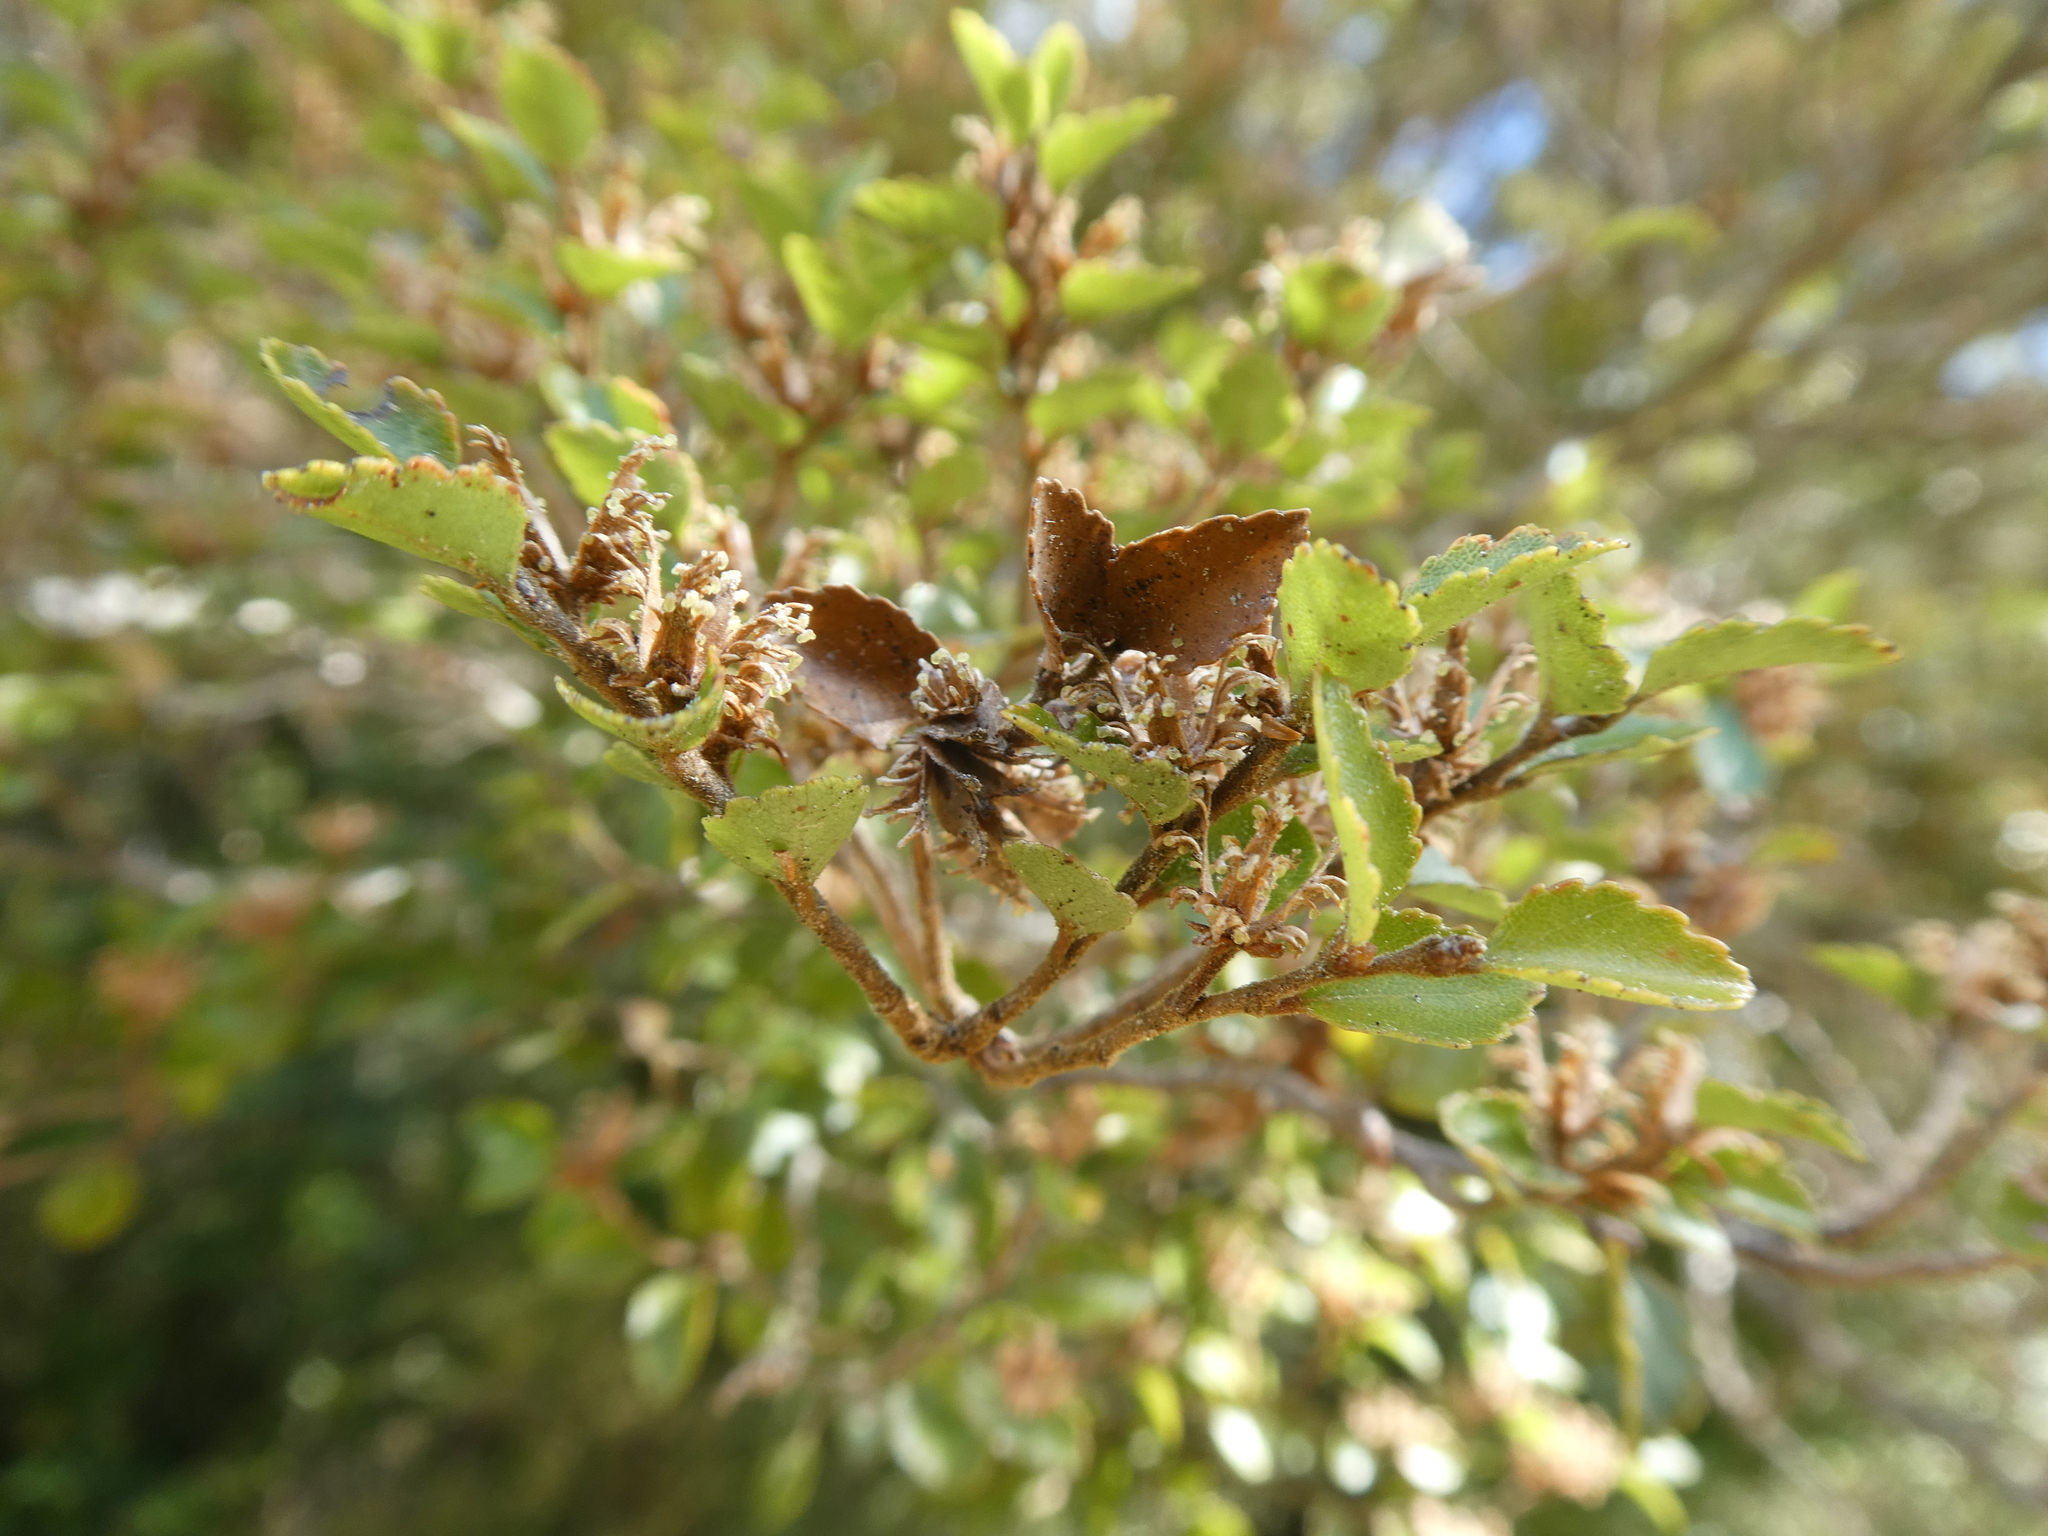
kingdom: Plantae
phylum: Tracheophyta
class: Magnoliopsida
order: Fagales
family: Nothofagaceae
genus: Nothofagus
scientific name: Nothofagus menziesii
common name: Silver beech
